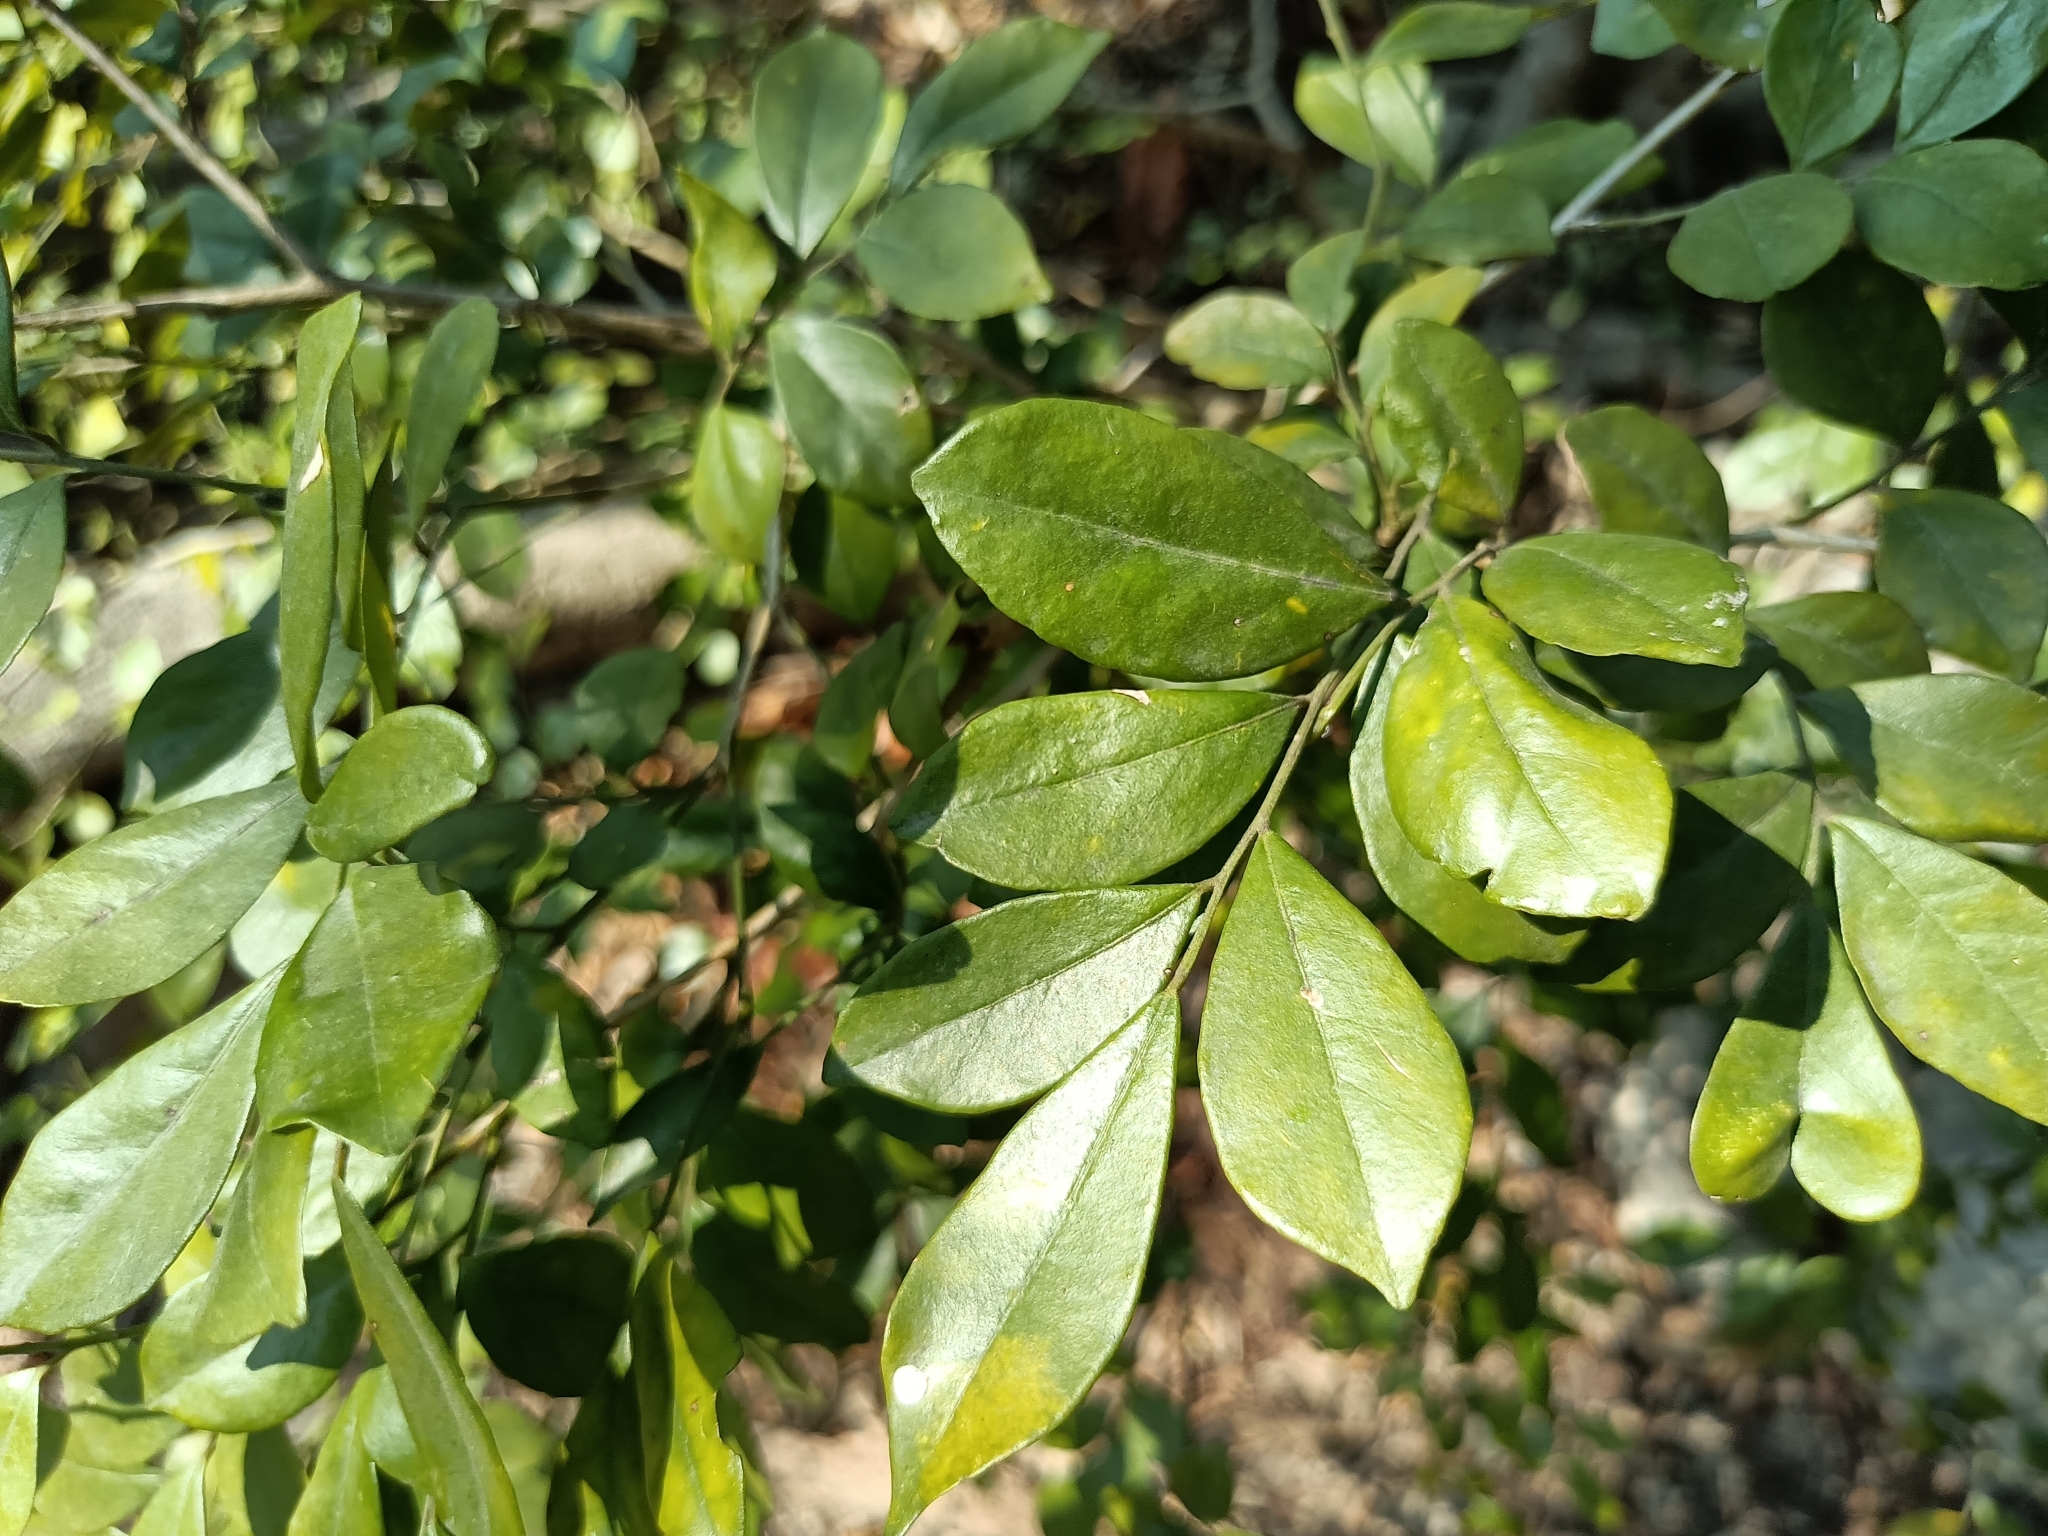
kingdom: Plantae
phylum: Tracheophyta
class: Magnoliopsida
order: Sapindales
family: Rutaceae
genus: Murraya
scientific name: Murraya paniculata
